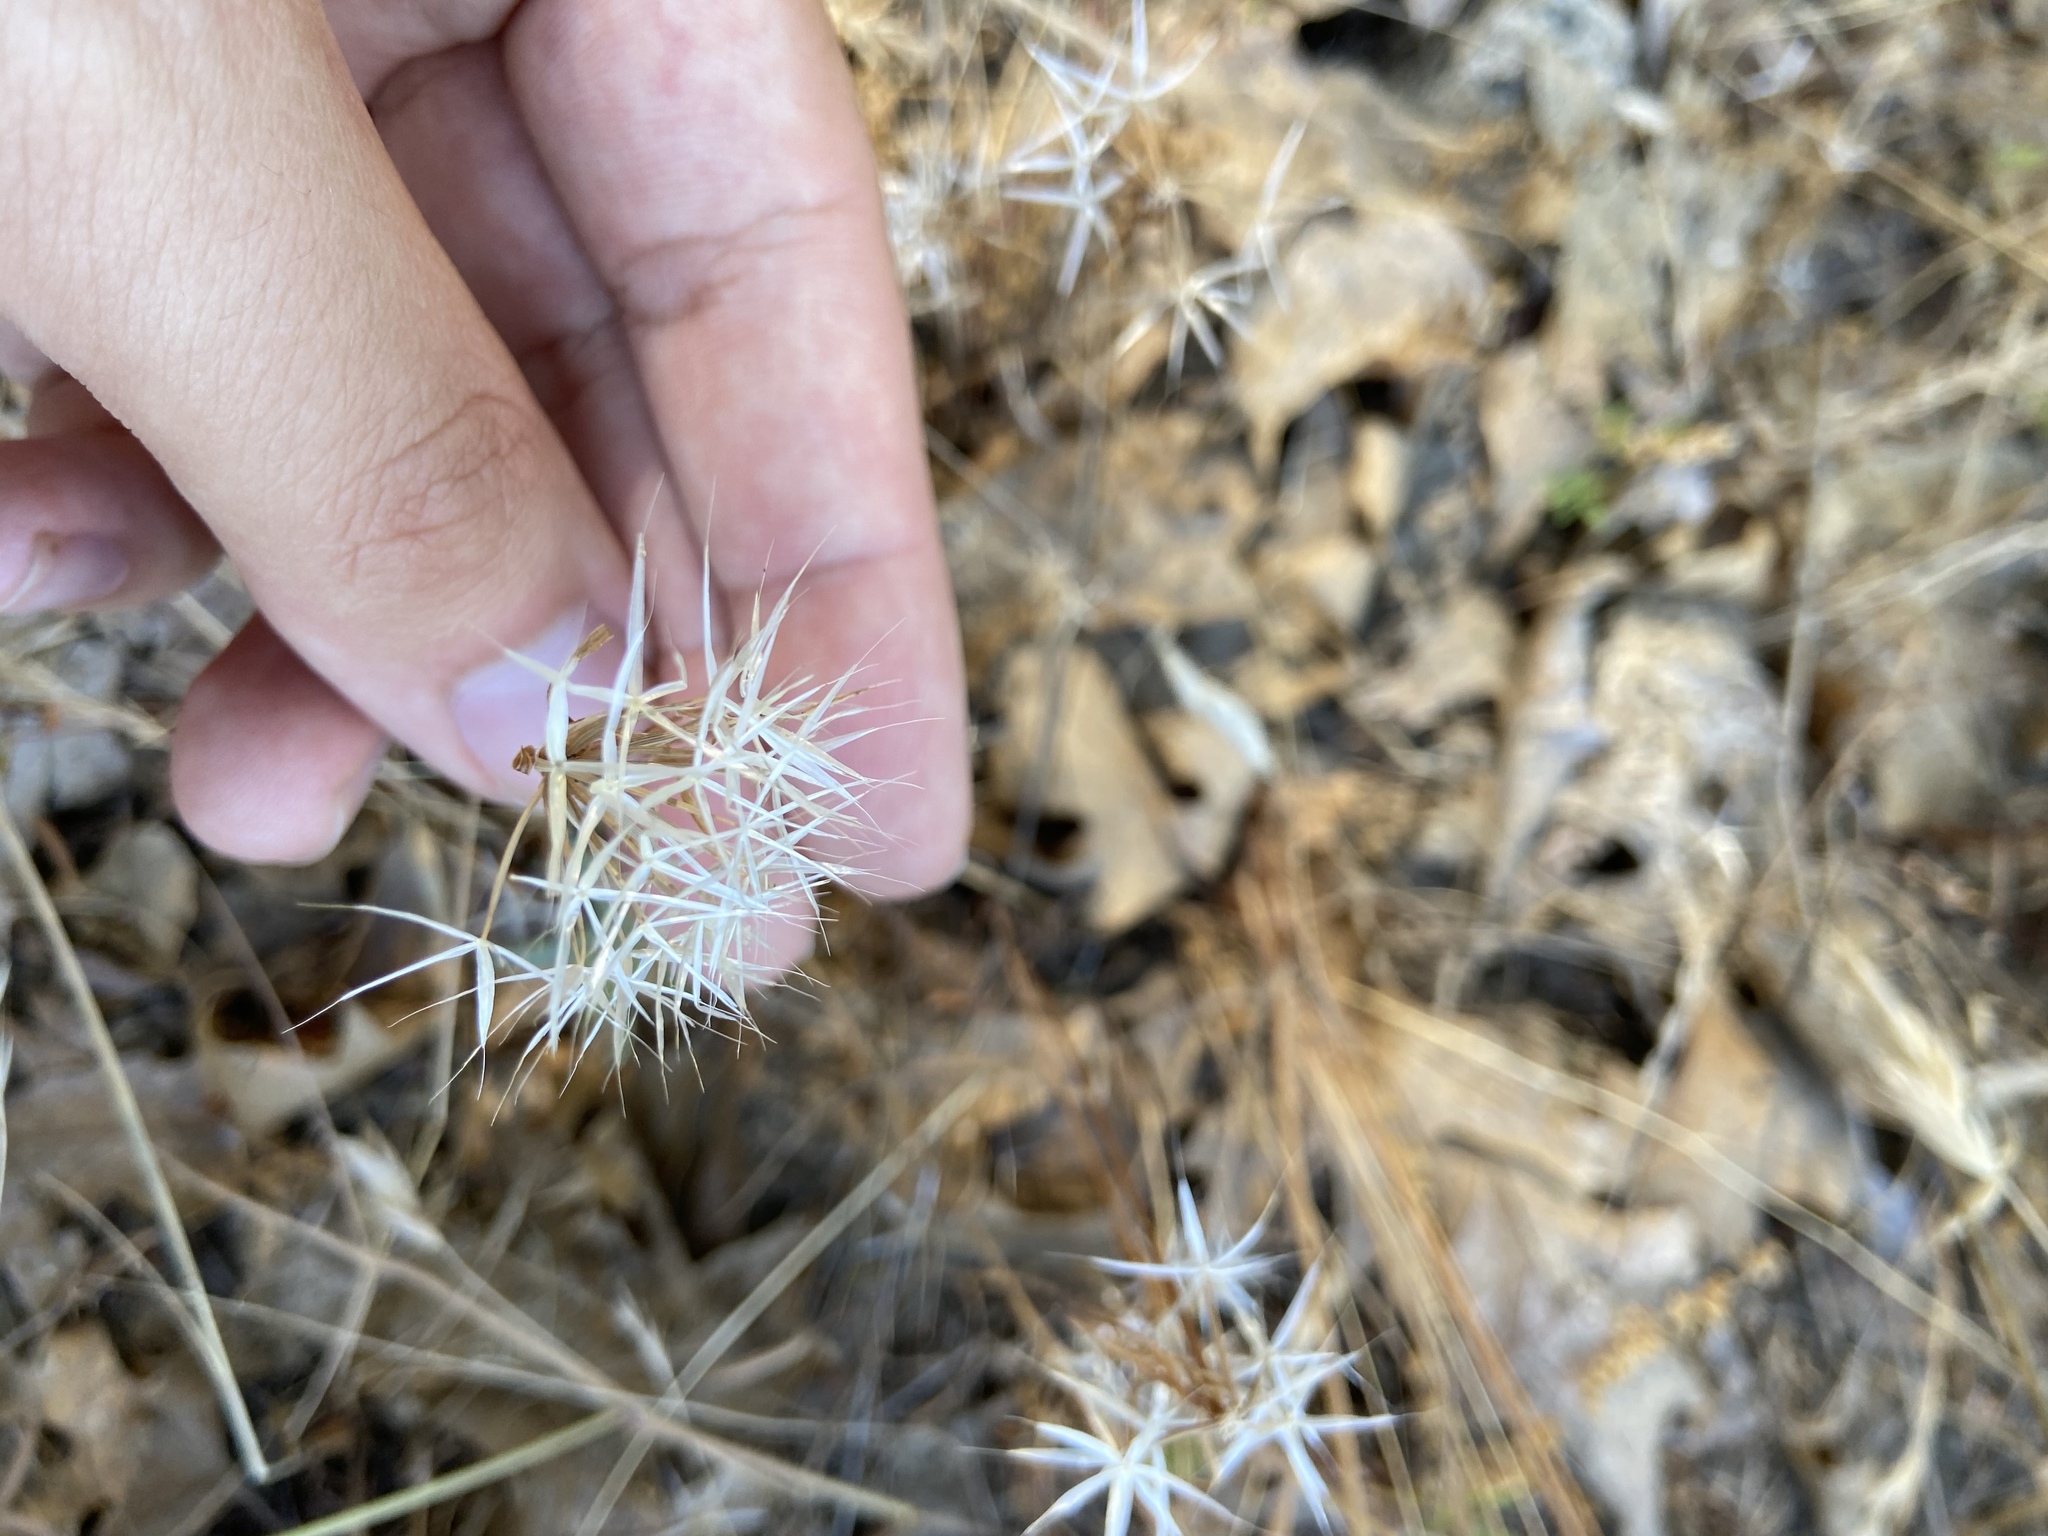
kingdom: Plantae
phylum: Tracheophyta
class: Magnoliopsida
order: Asterales
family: Asteraceae
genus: Microseris
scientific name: Microseris lindleyi
